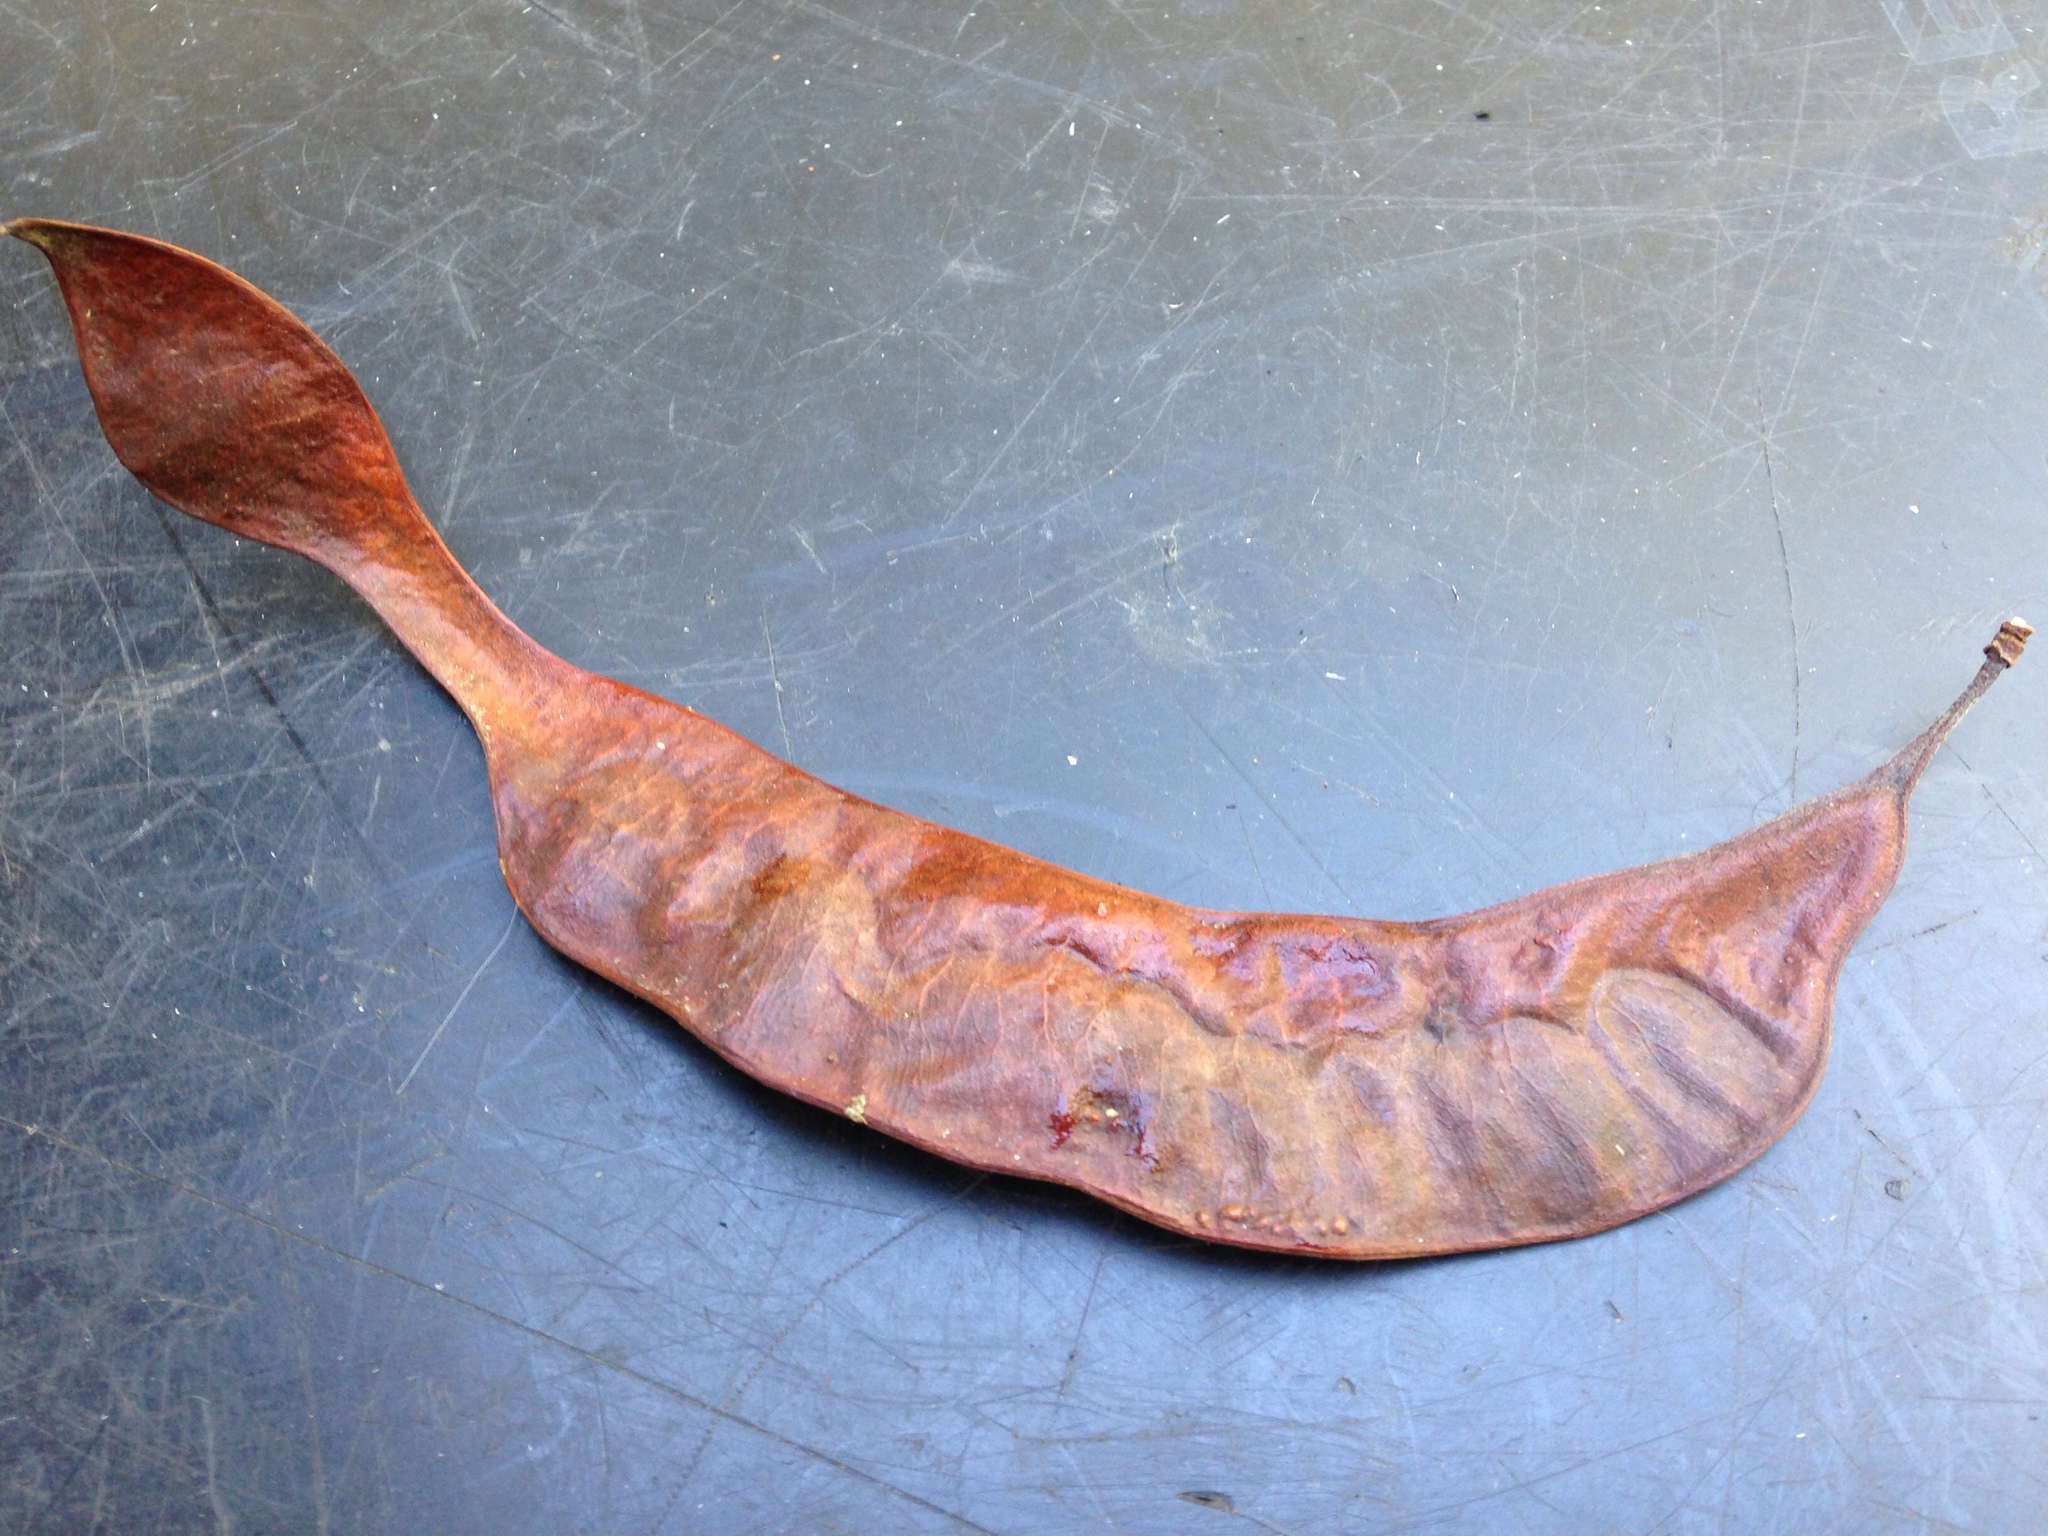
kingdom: Plantae
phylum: Tracheophyta
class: Magnoliopsida
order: Fabales
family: Fabaceae
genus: Gleditsia
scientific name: Gleditsia triacanthos
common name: Common honeylocust
